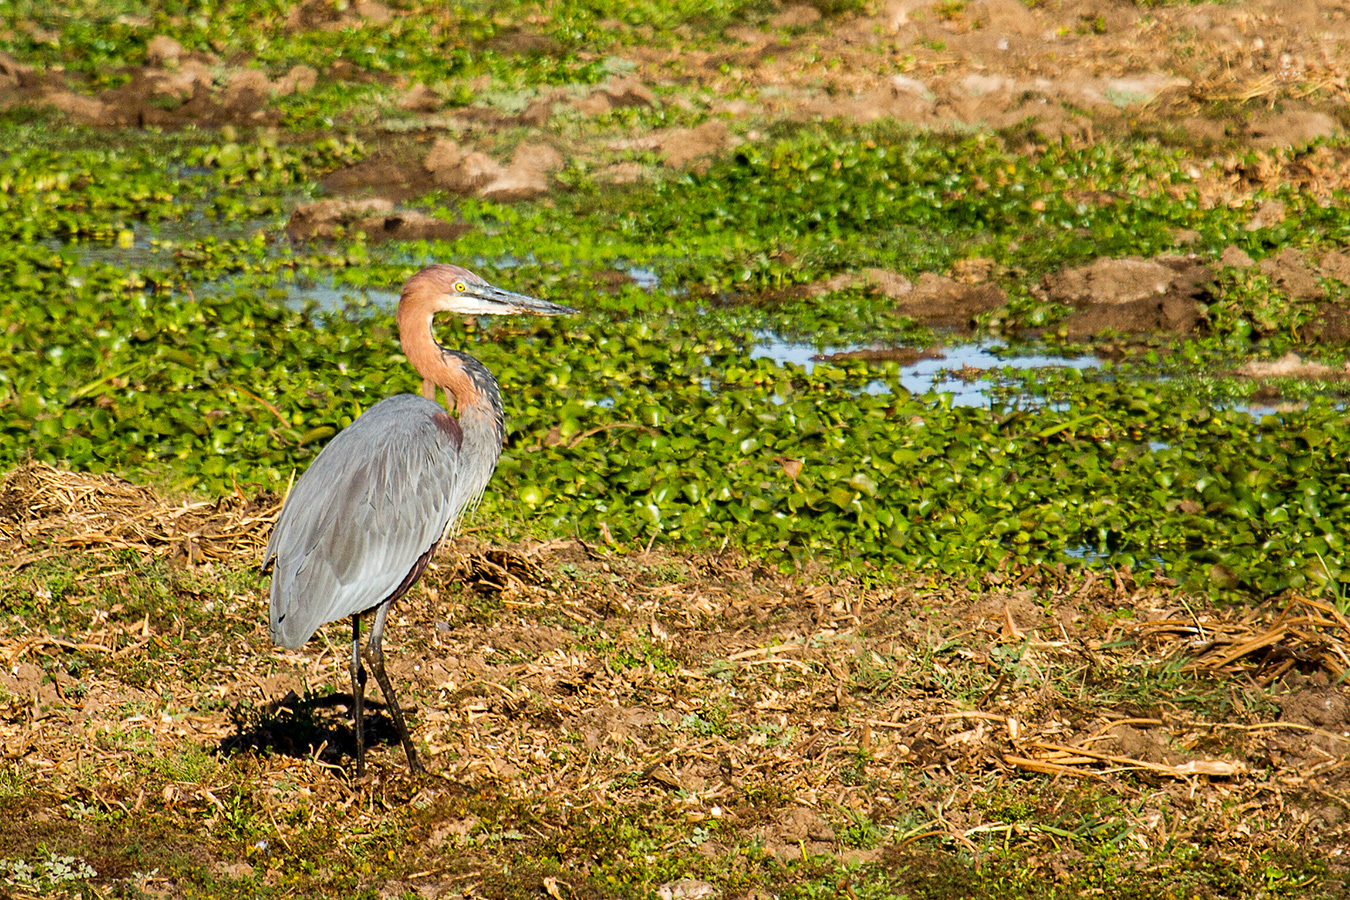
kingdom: Animalia
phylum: Chordata
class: Aves
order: Pelecaniformes
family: Ardeidae
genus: Ardea
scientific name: Ardea goliath
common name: Goliath heron
